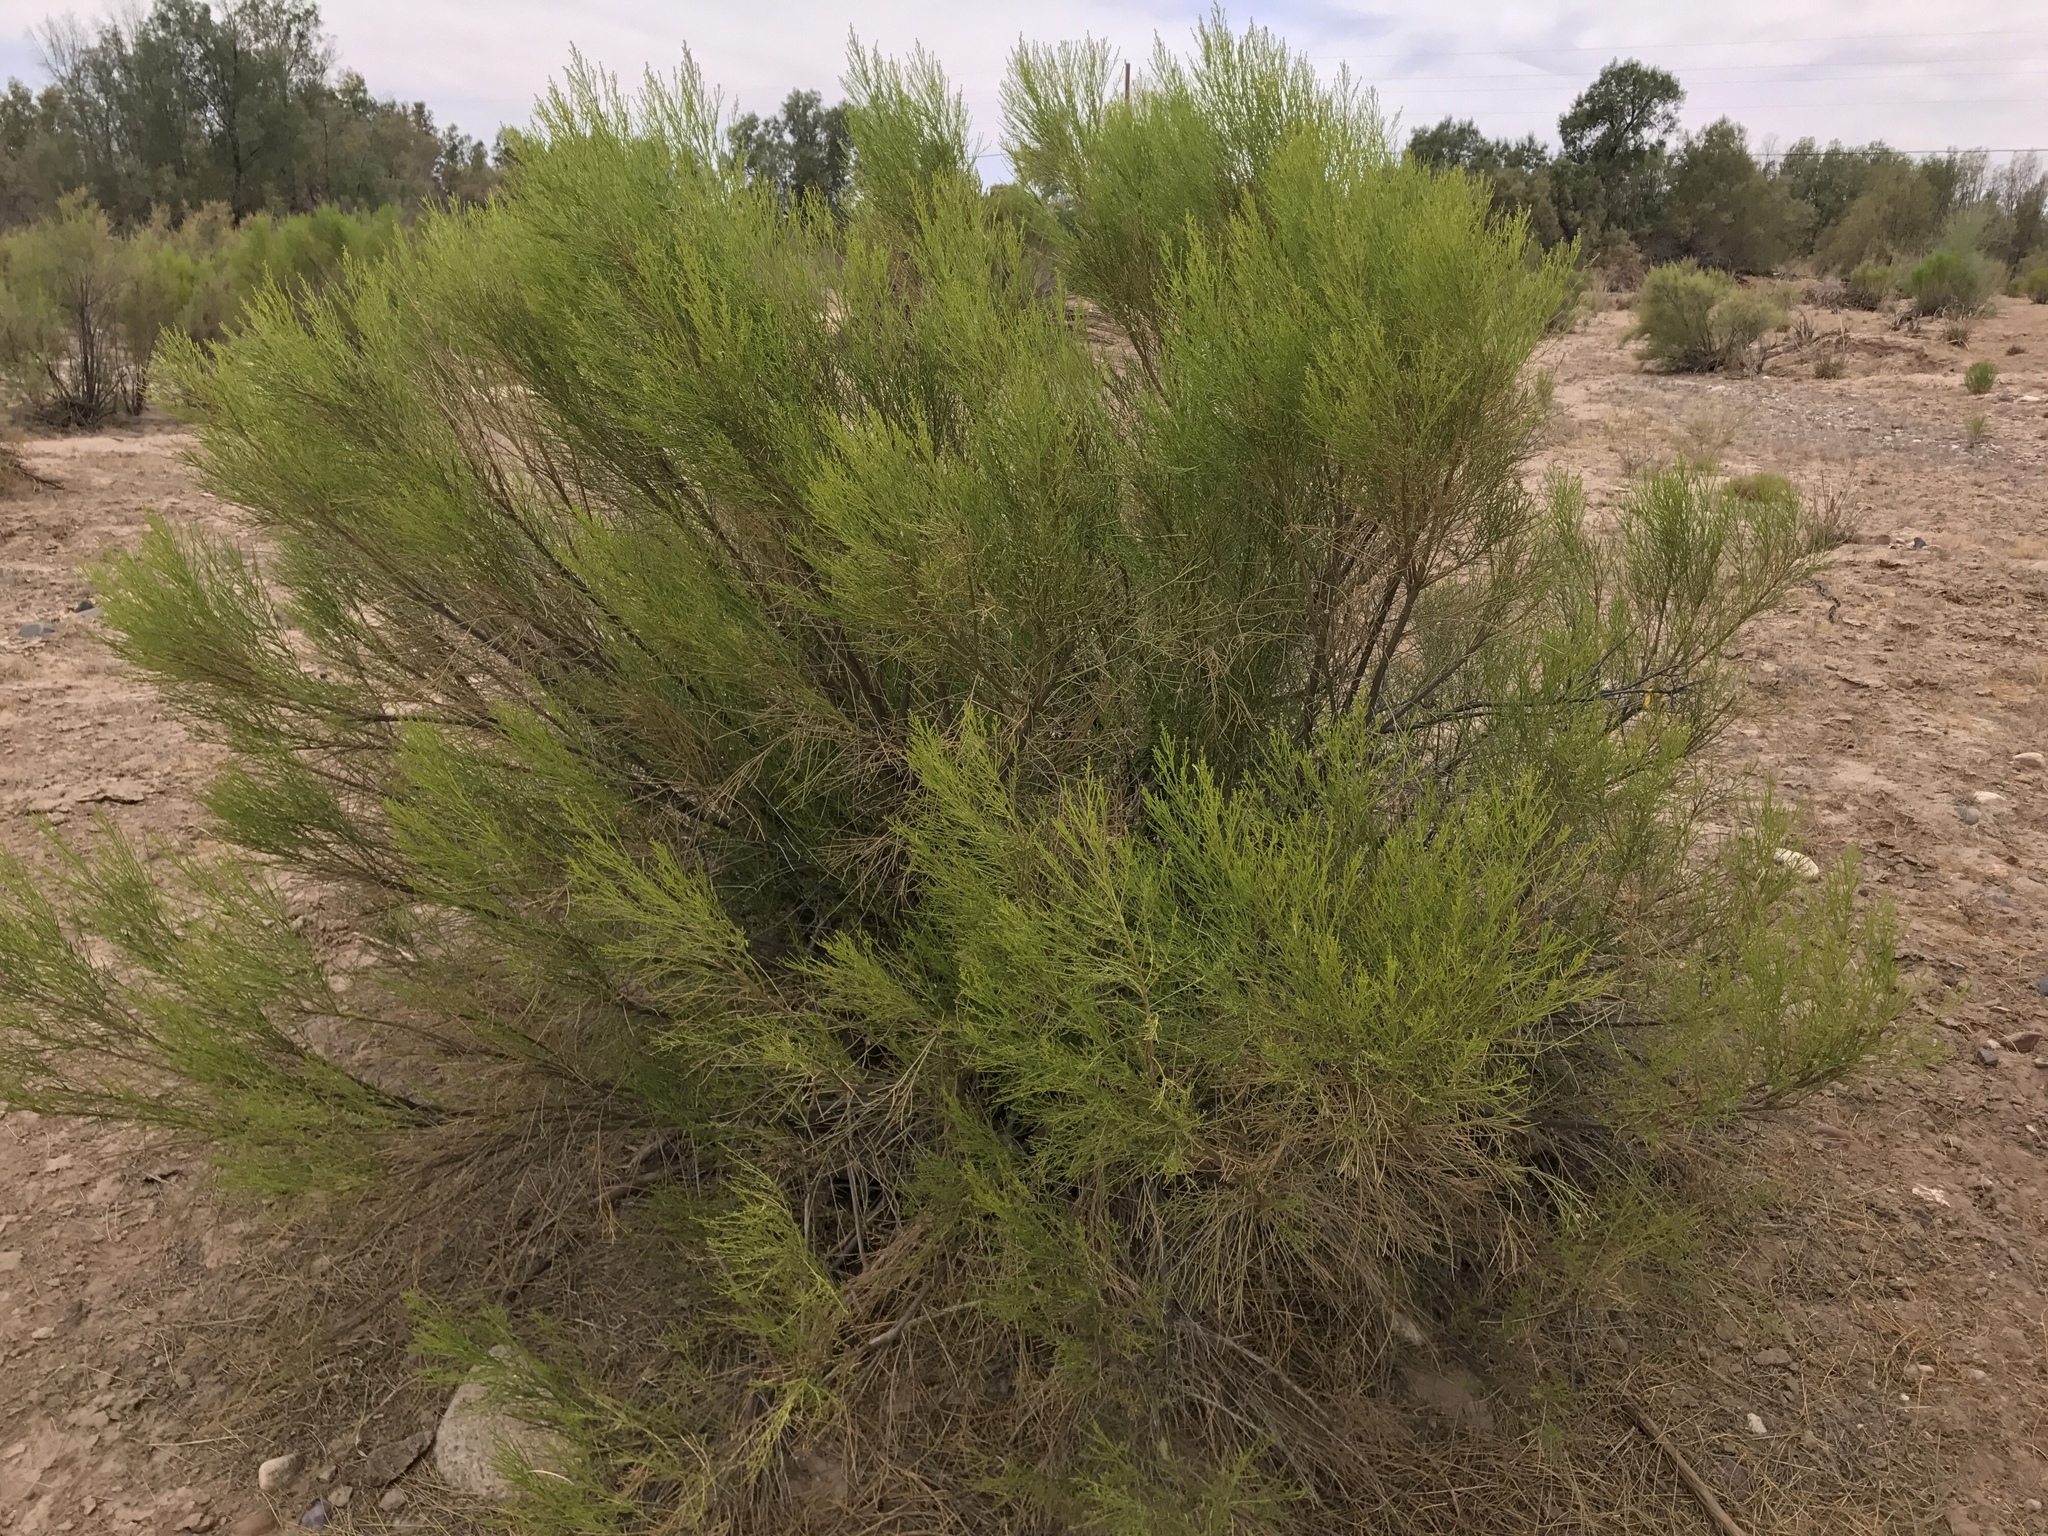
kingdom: Plantae
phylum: Tracheophyta
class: Magnoliopsida
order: Asterales
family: Asteraceae
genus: Baccharis
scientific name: Baccharis sarothroides
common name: Desert-broom
